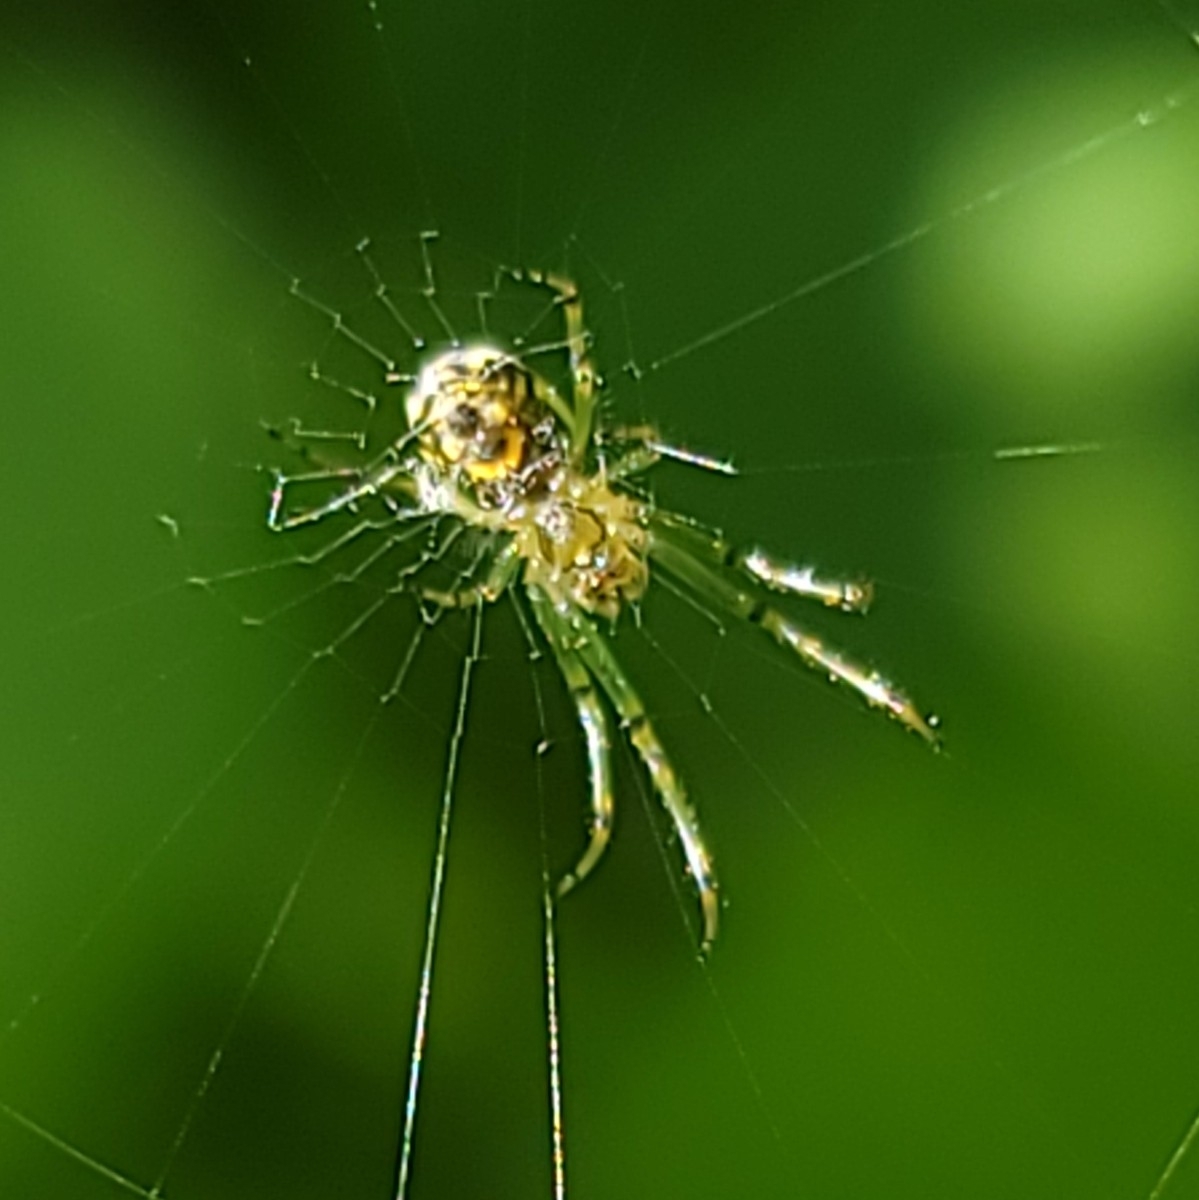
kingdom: Animalia
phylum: Arthropoda
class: Arachnida
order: Araneae
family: Tetragnathidae
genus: Leucauge
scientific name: Leucauge venusta
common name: Longjawed orb weavers
